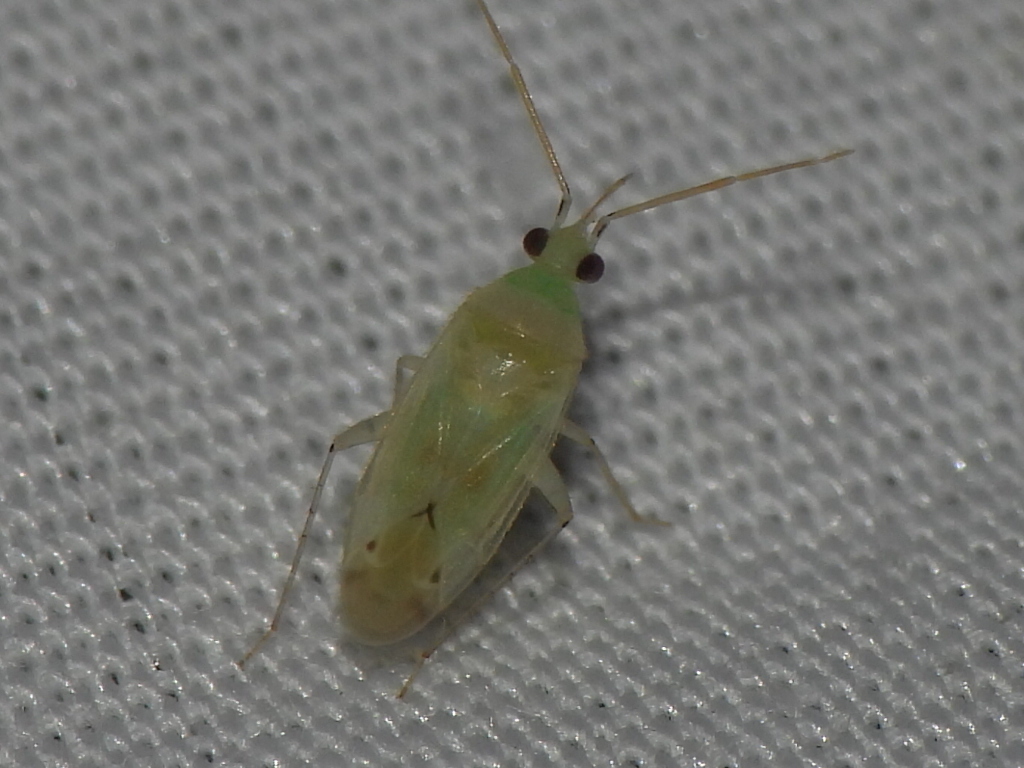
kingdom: Animalia
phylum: Arthropoda
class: Insecta
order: Hemiptera
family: Miridae
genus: Americodema
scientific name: Americodema nigrolineatum
